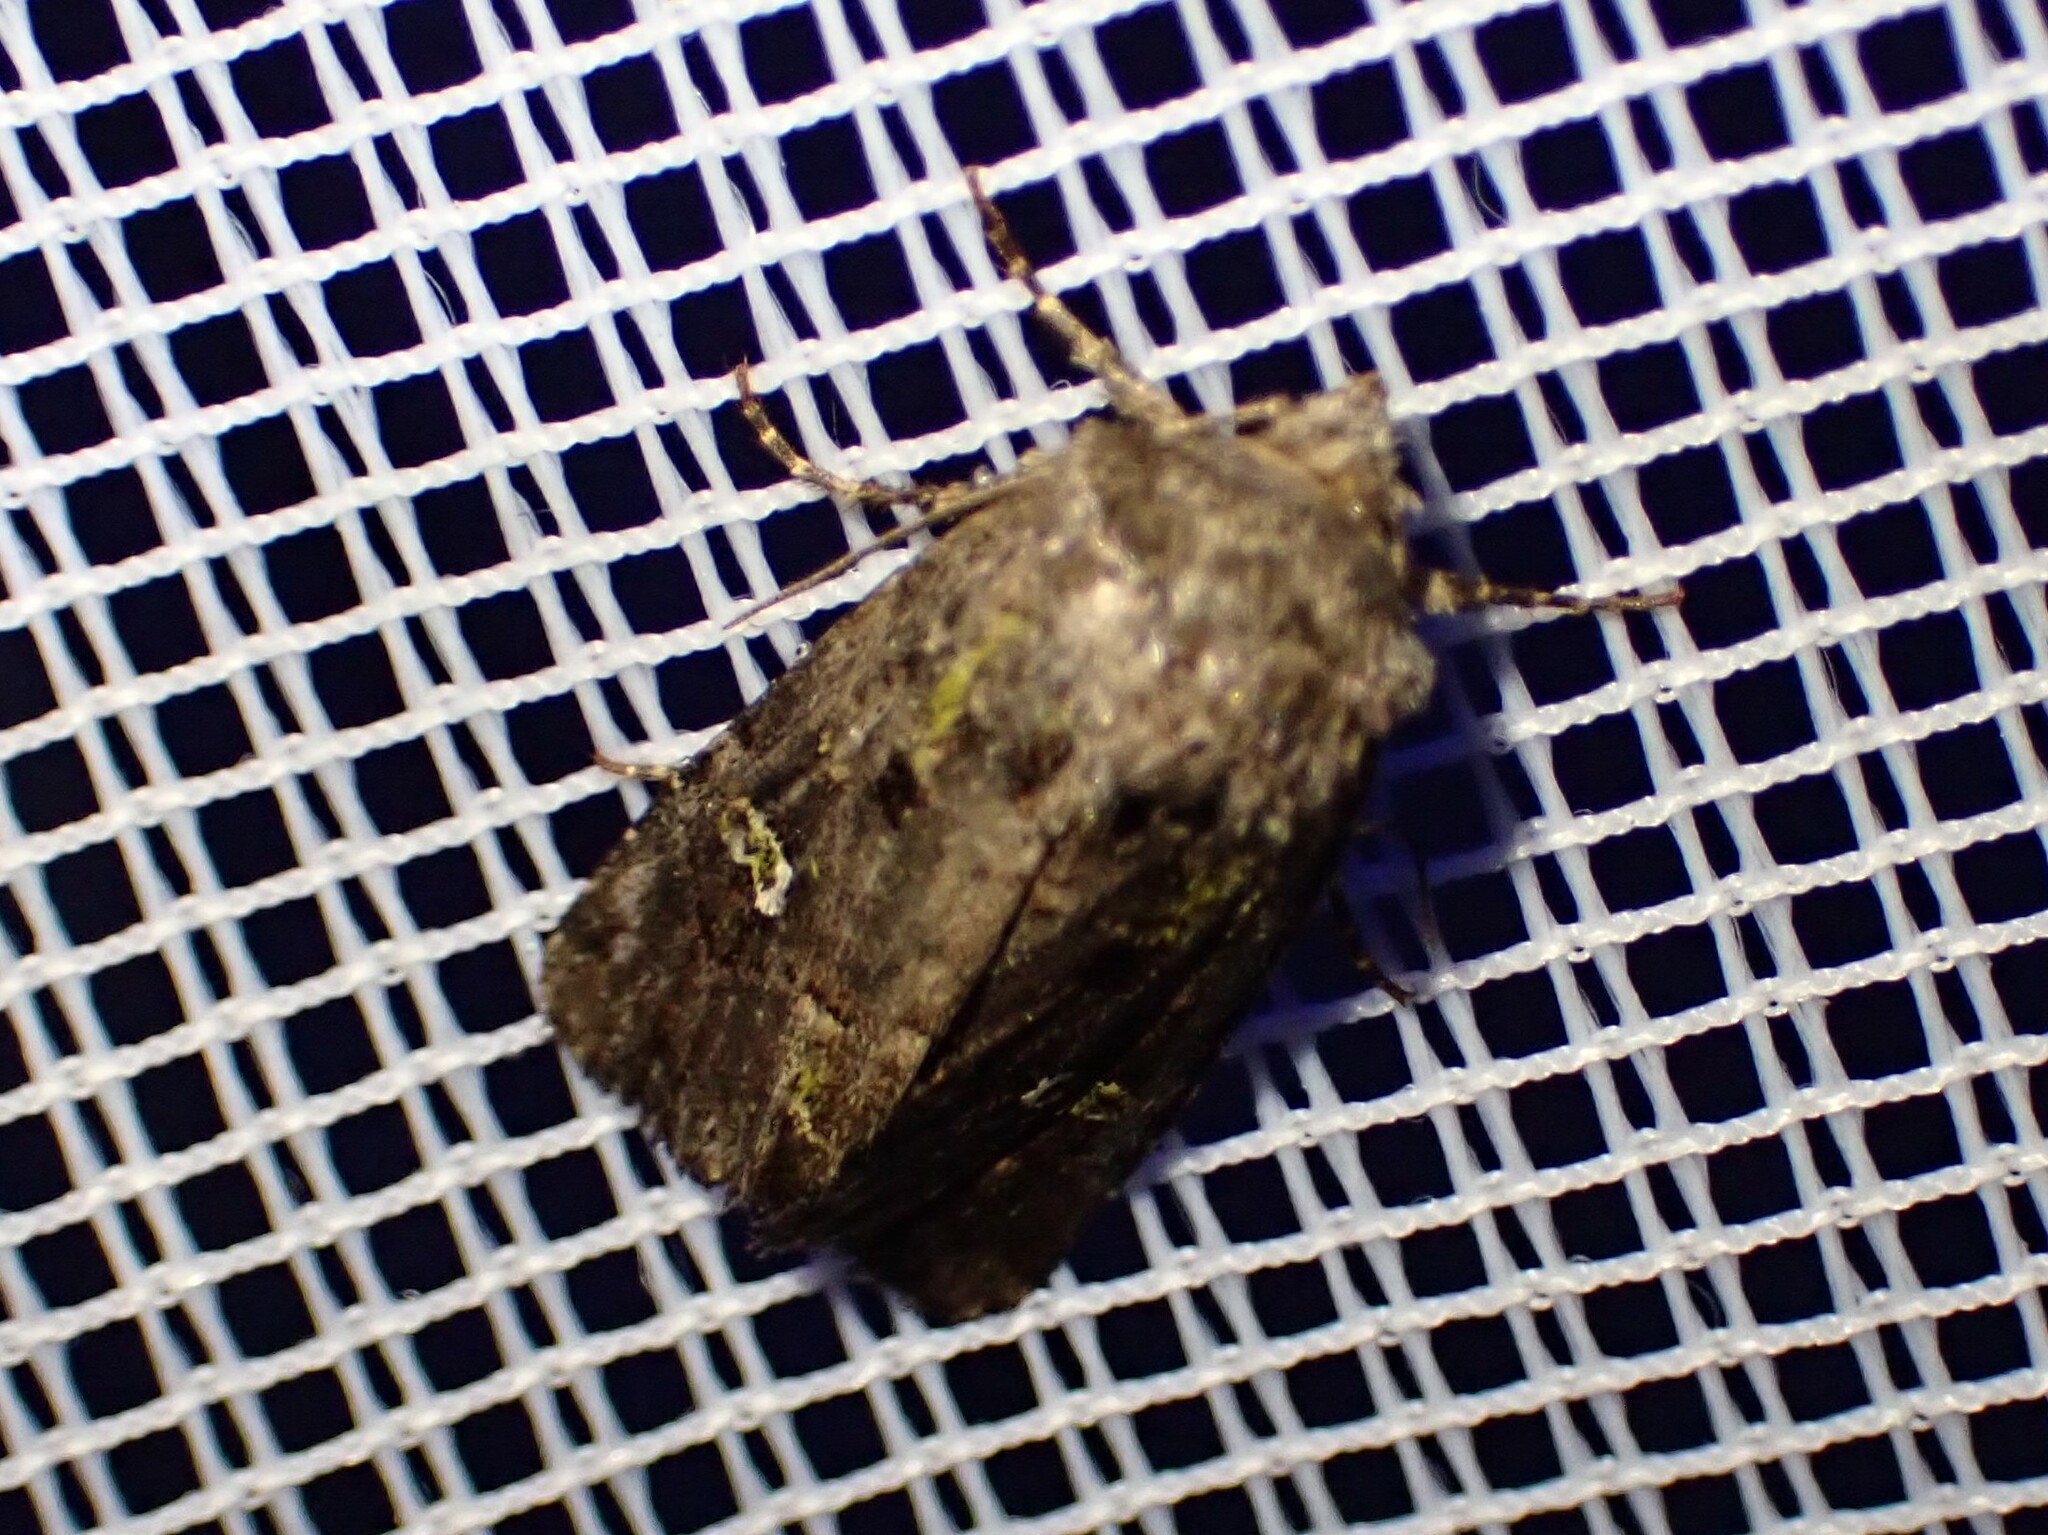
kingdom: Animalia
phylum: Arthropoda
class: Insecta
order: Lepidoptera
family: Noctuidae
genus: Lacinipolia
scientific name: Lacinipolia renigera
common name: Kidney-spotted minor
